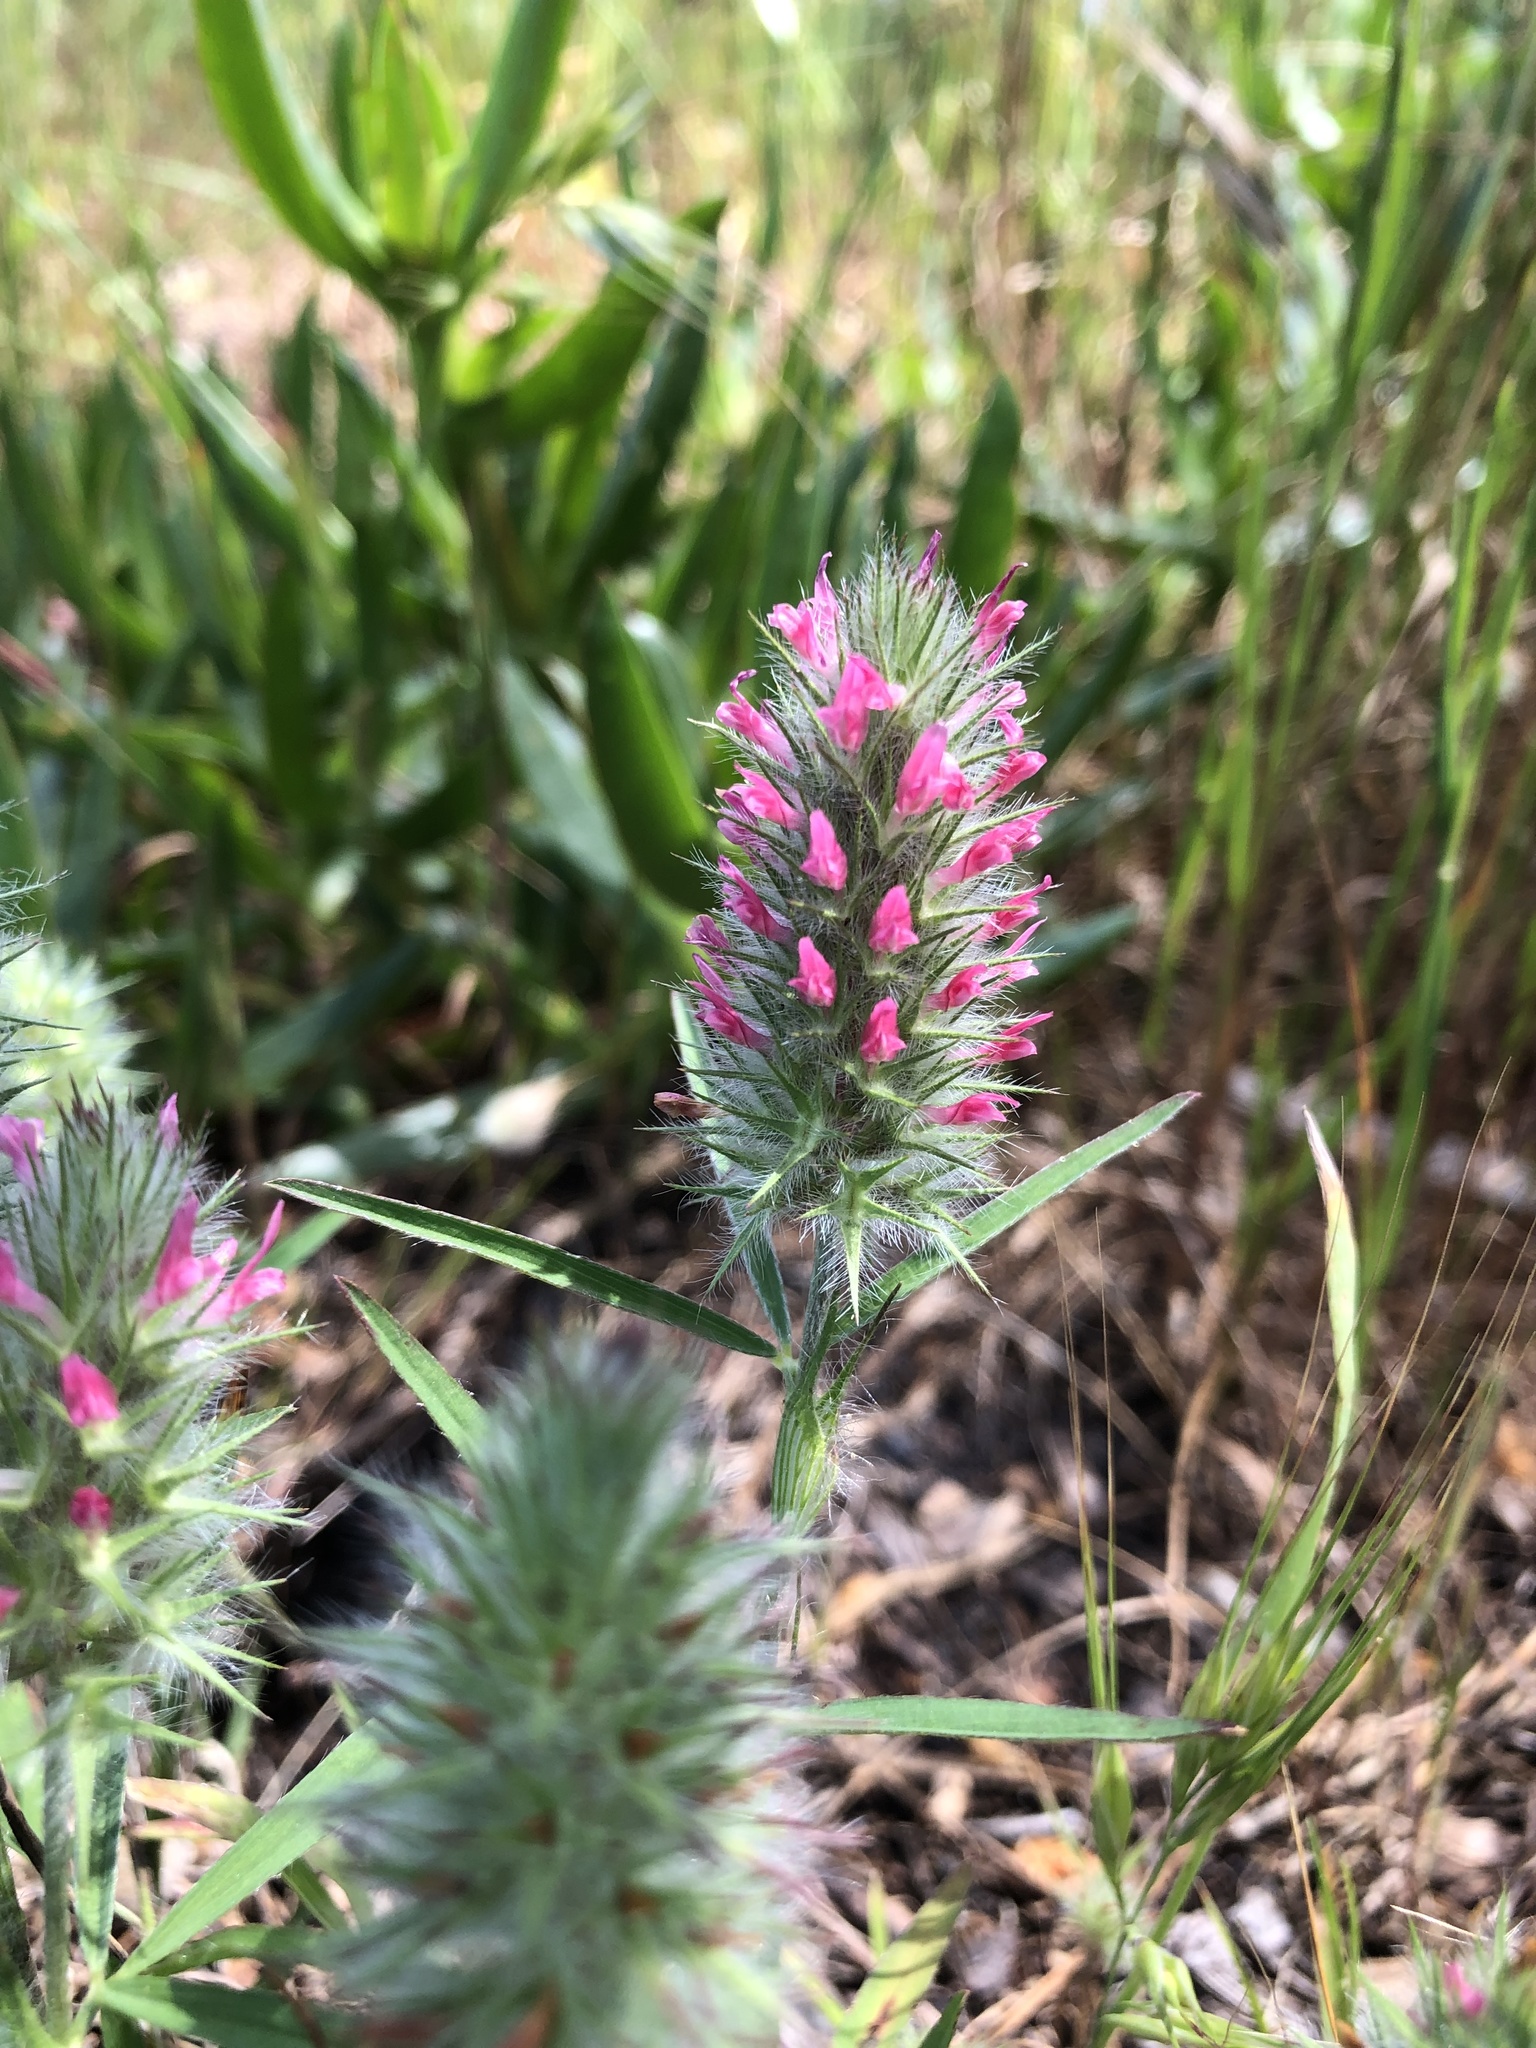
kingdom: Plantae
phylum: Tracheophyta
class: Magnoliopsida
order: Fabales
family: Fabaceae
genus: Trifolium
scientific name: Trifolium angustifolium
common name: Narrow clover
